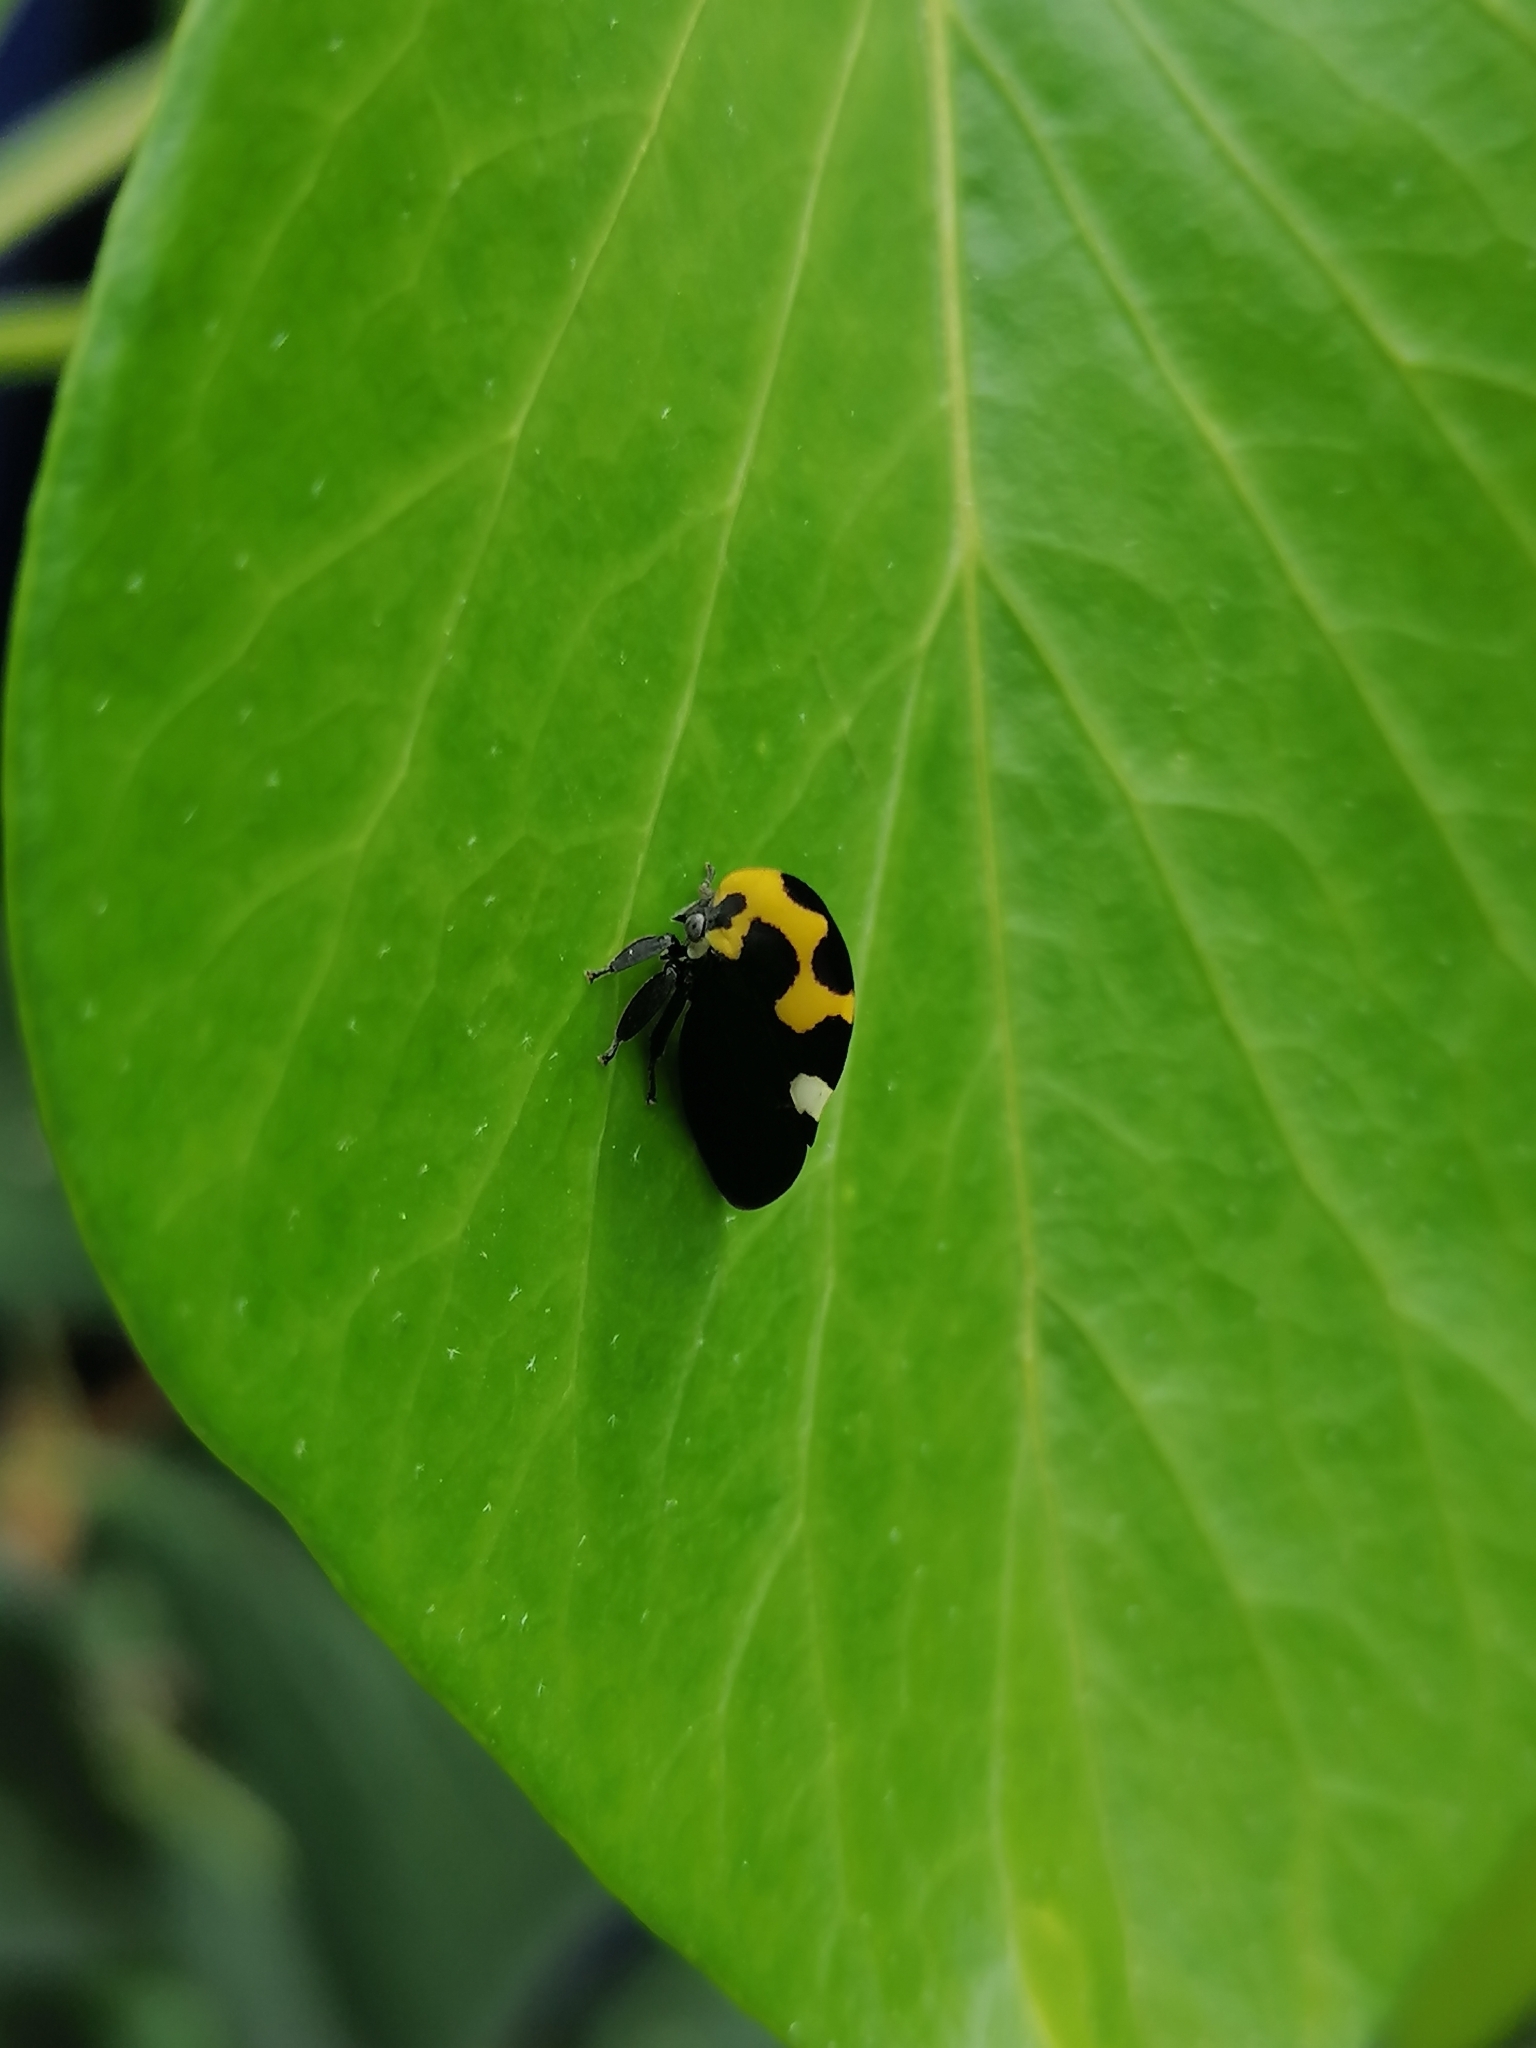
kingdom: Animalia
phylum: Arthropoda
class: Insecta
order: Hemiptera
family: Membracidae
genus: Membracis
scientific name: Membracis mexicana
